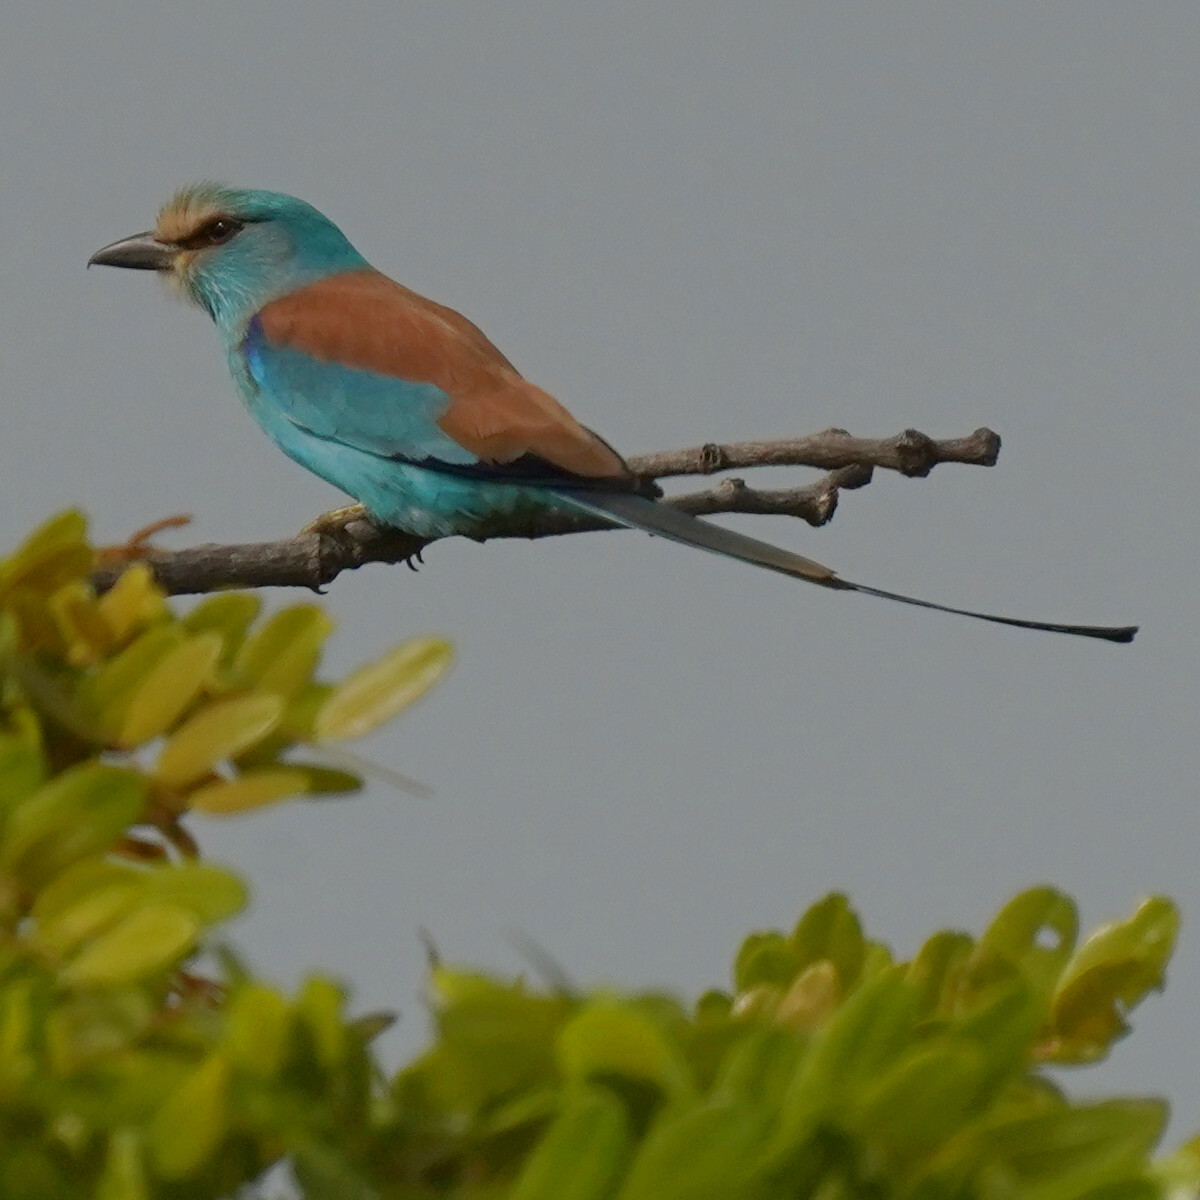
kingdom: Animalia
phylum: Chordata
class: Aves
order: Coraciiformes
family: Coraciidae
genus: Coracias
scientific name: Coracias abyssinicus
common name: Abyssinian roller
